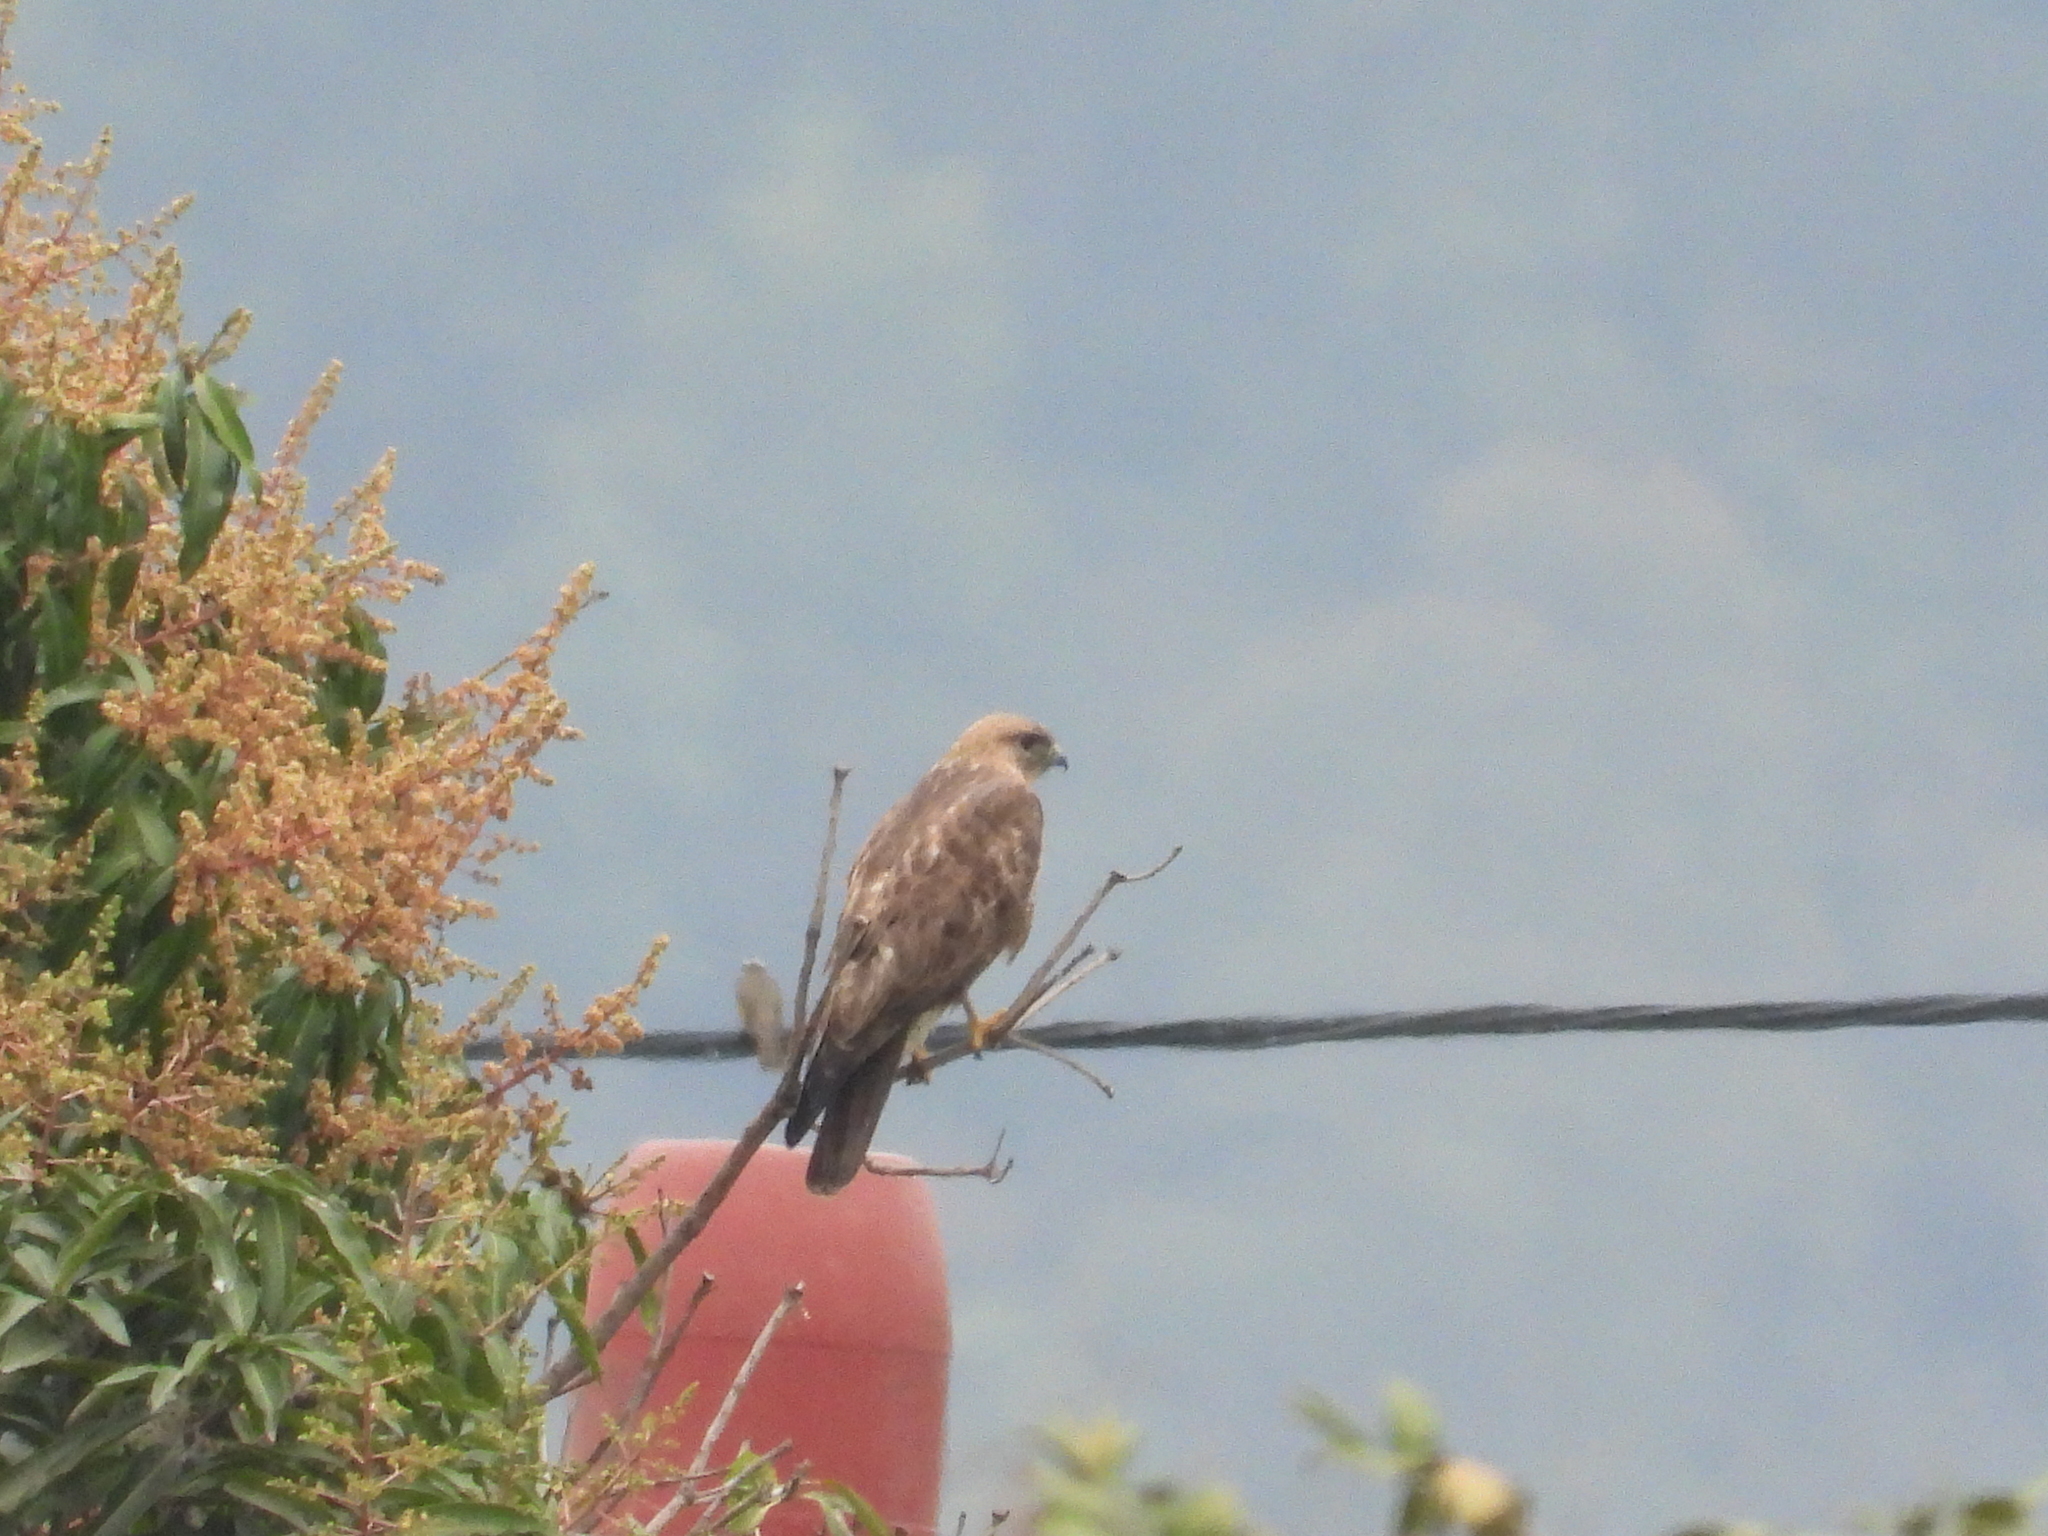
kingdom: Animalia
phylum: Chordata
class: Aves
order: Accipitriformes
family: Accipitridae
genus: Buteo
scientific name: Buteo japonicus
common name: Eastern buzzard
